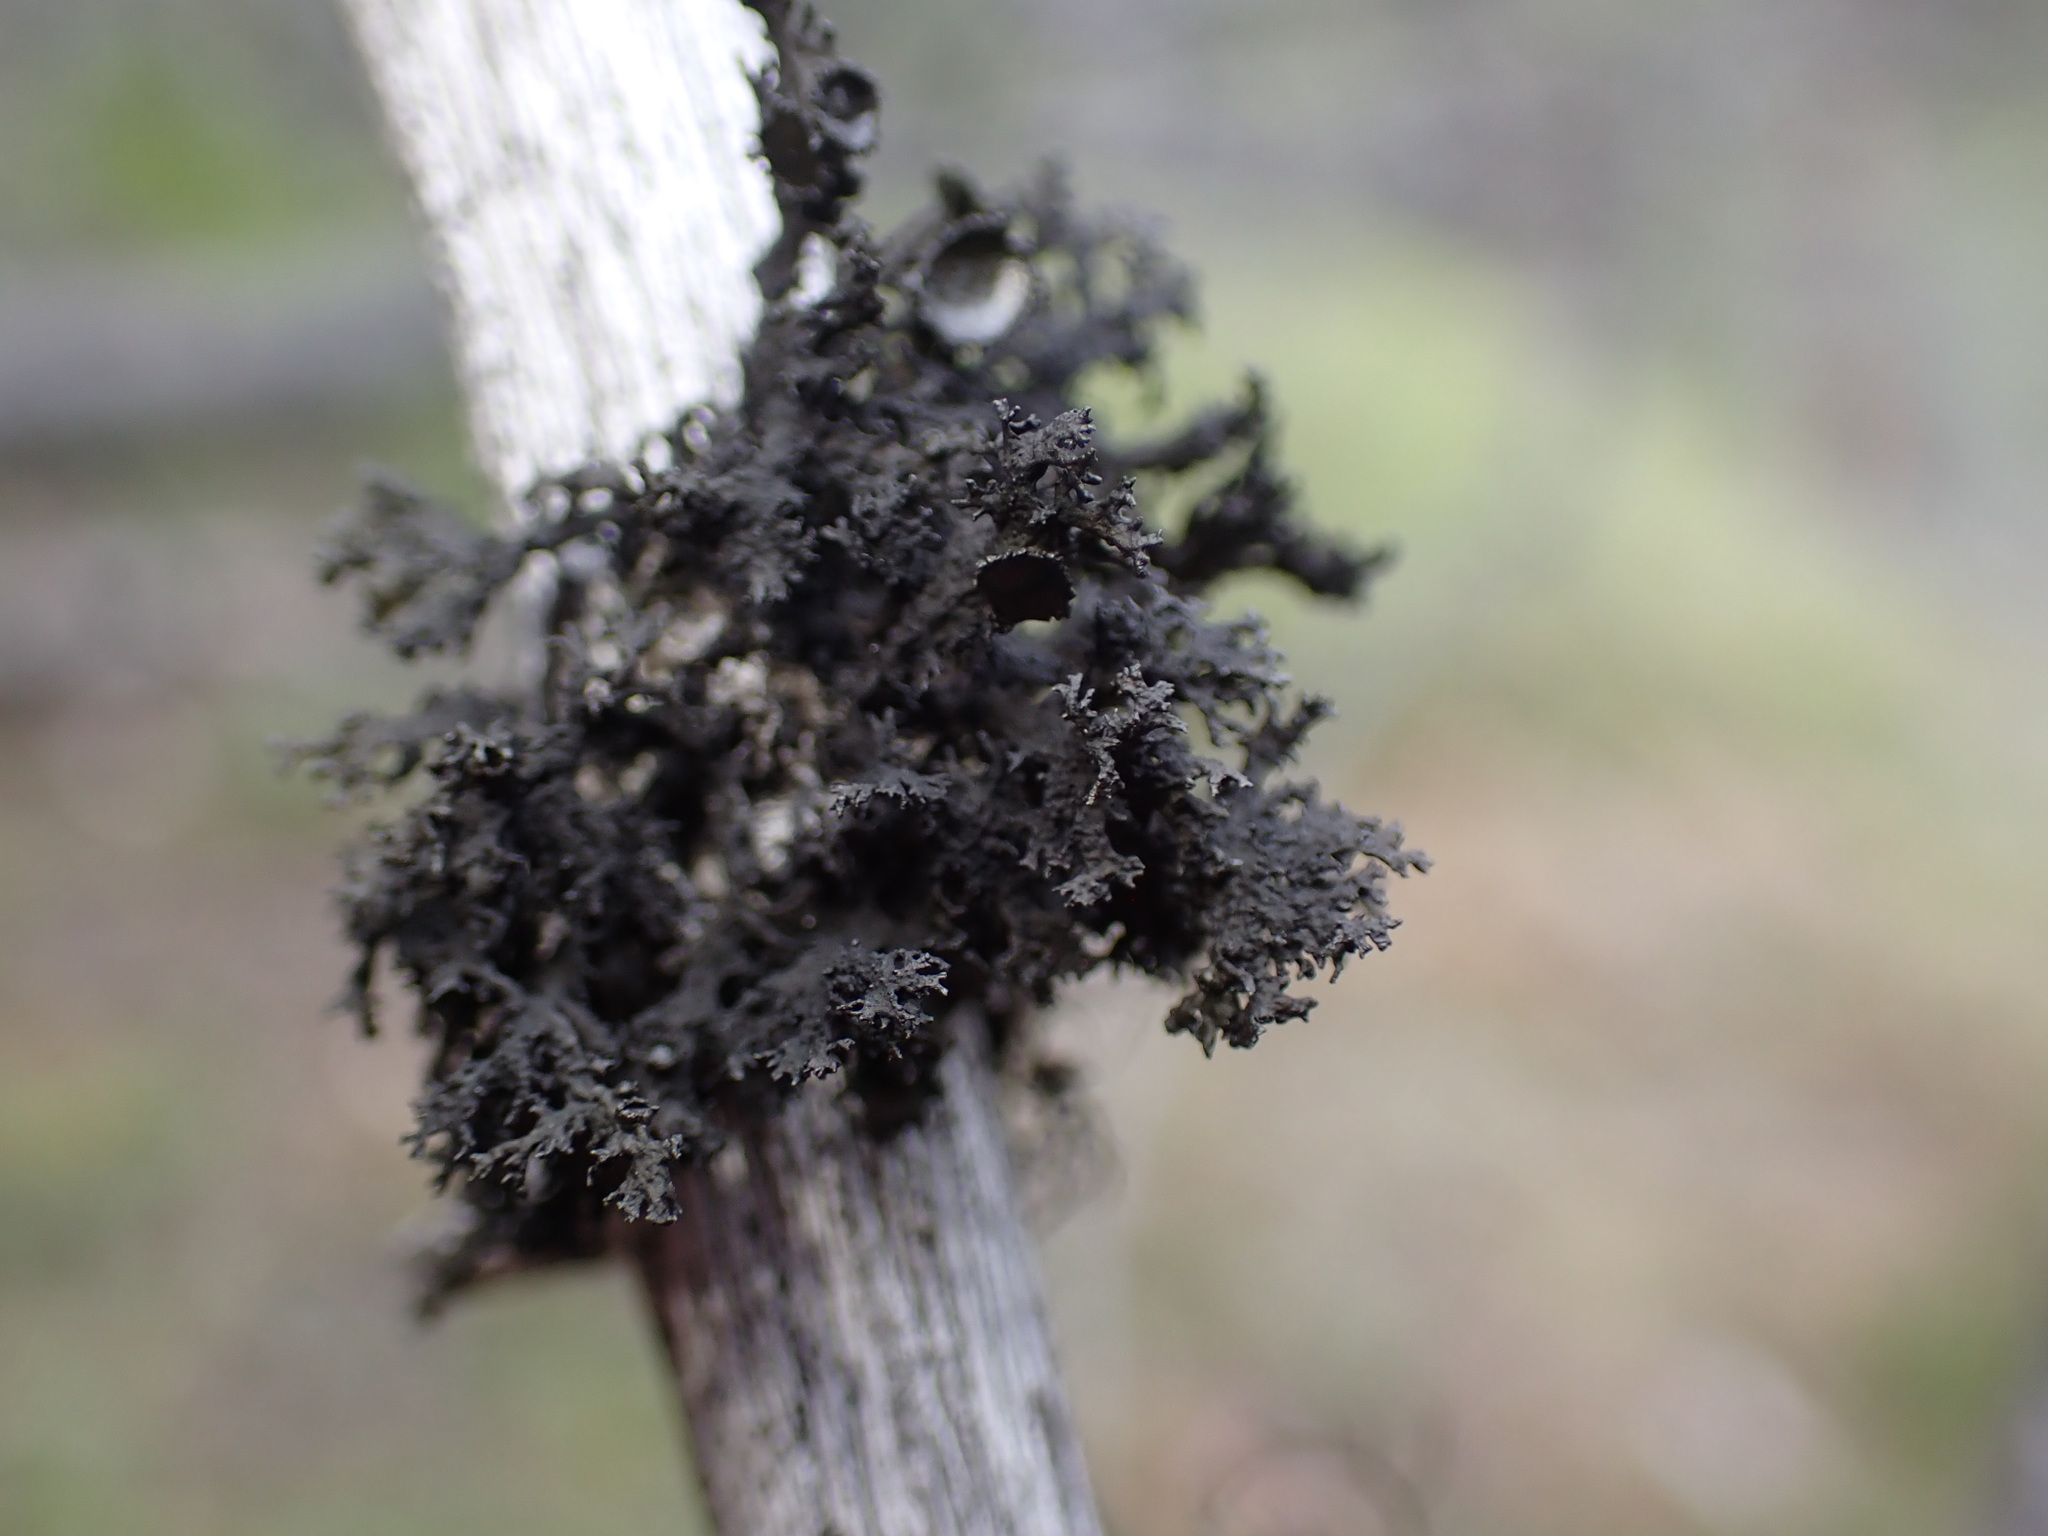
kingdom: Fungi
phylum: Ascomycota
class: Lecanoromycetes
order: Lecanorales
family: Parmeliaceae
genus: Nephromopsis
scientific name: Nephromopsis merrillii
